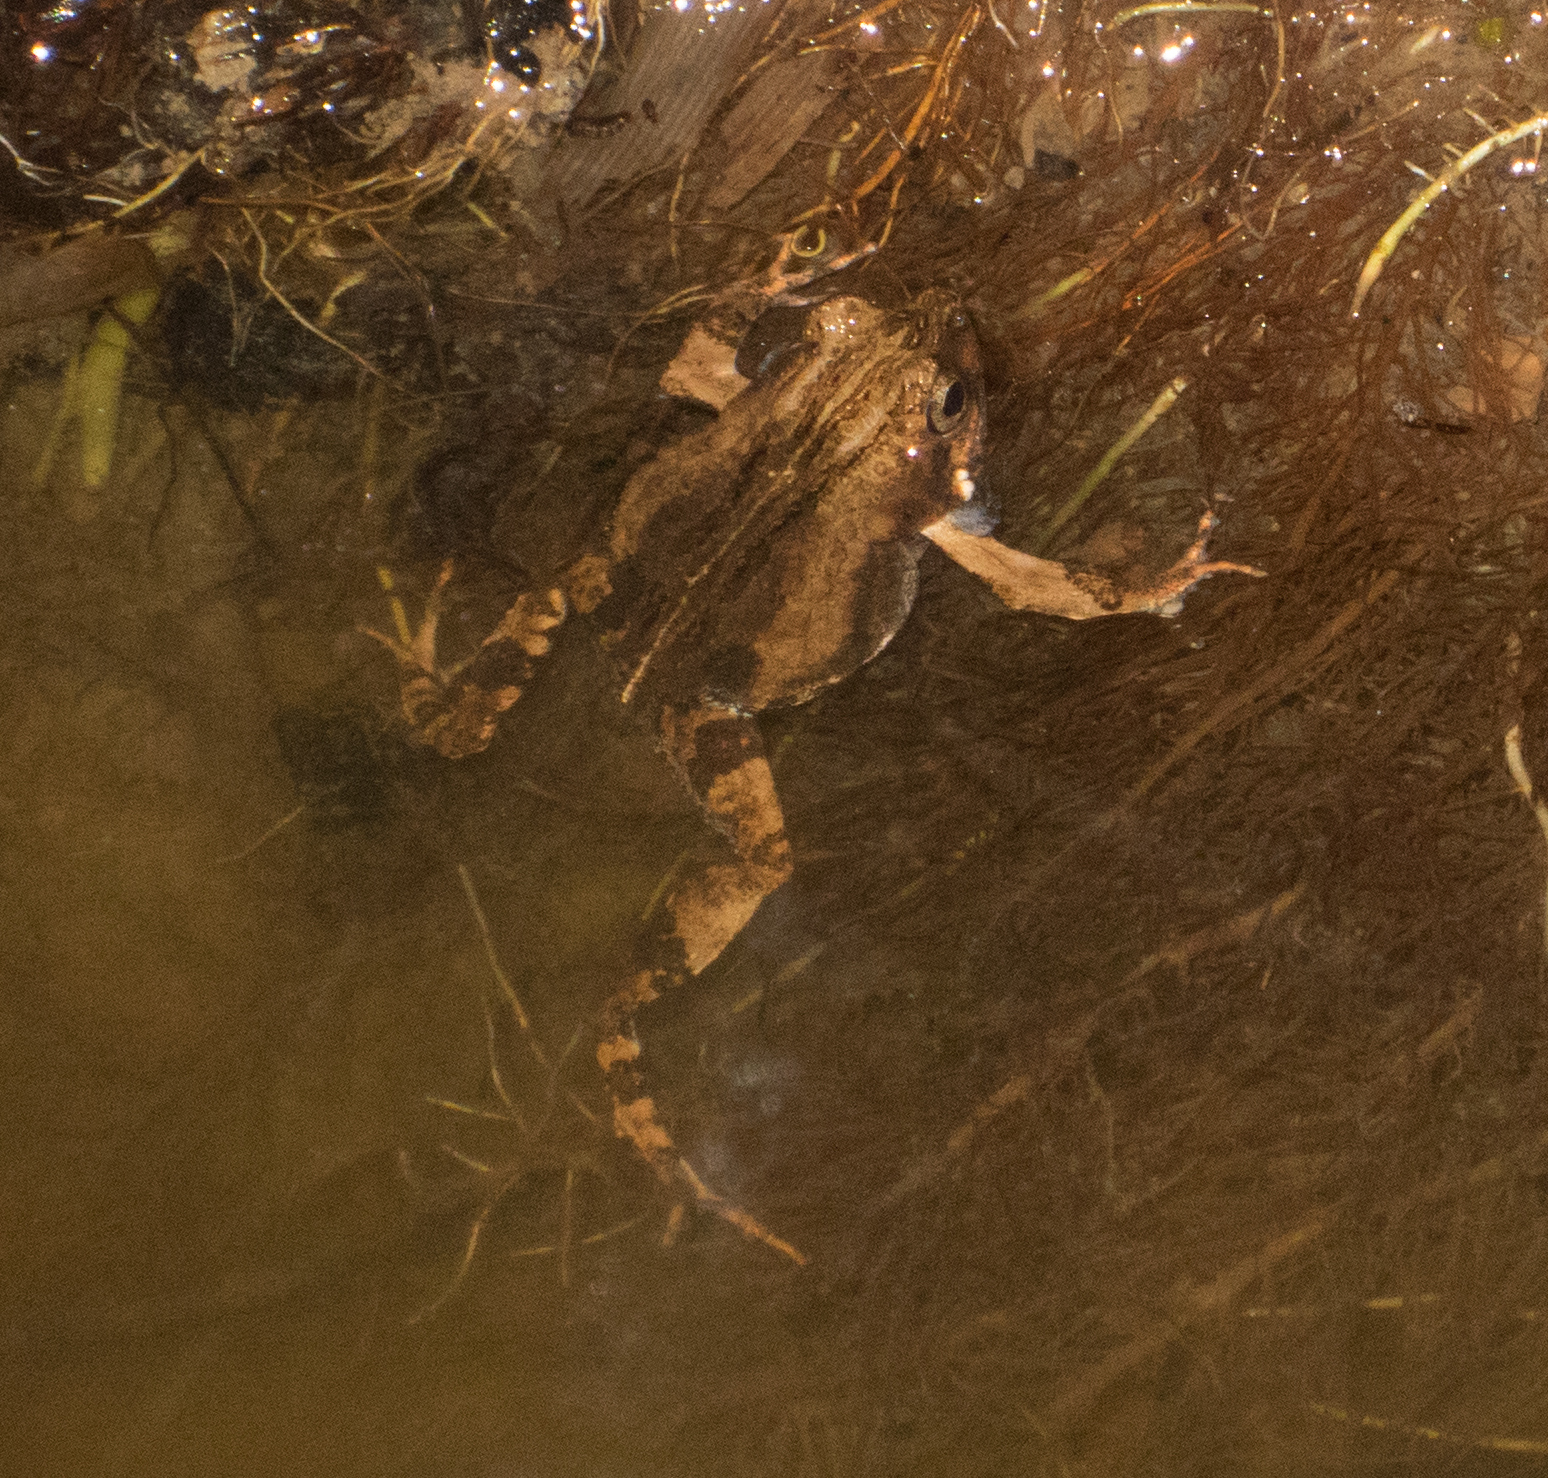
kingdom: Animalia
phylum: Chordata
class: Amphibia
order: Anura
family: Leptodactylidae
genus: Engystomops
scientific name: Engystomops pustulosus
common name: Tungara frog
